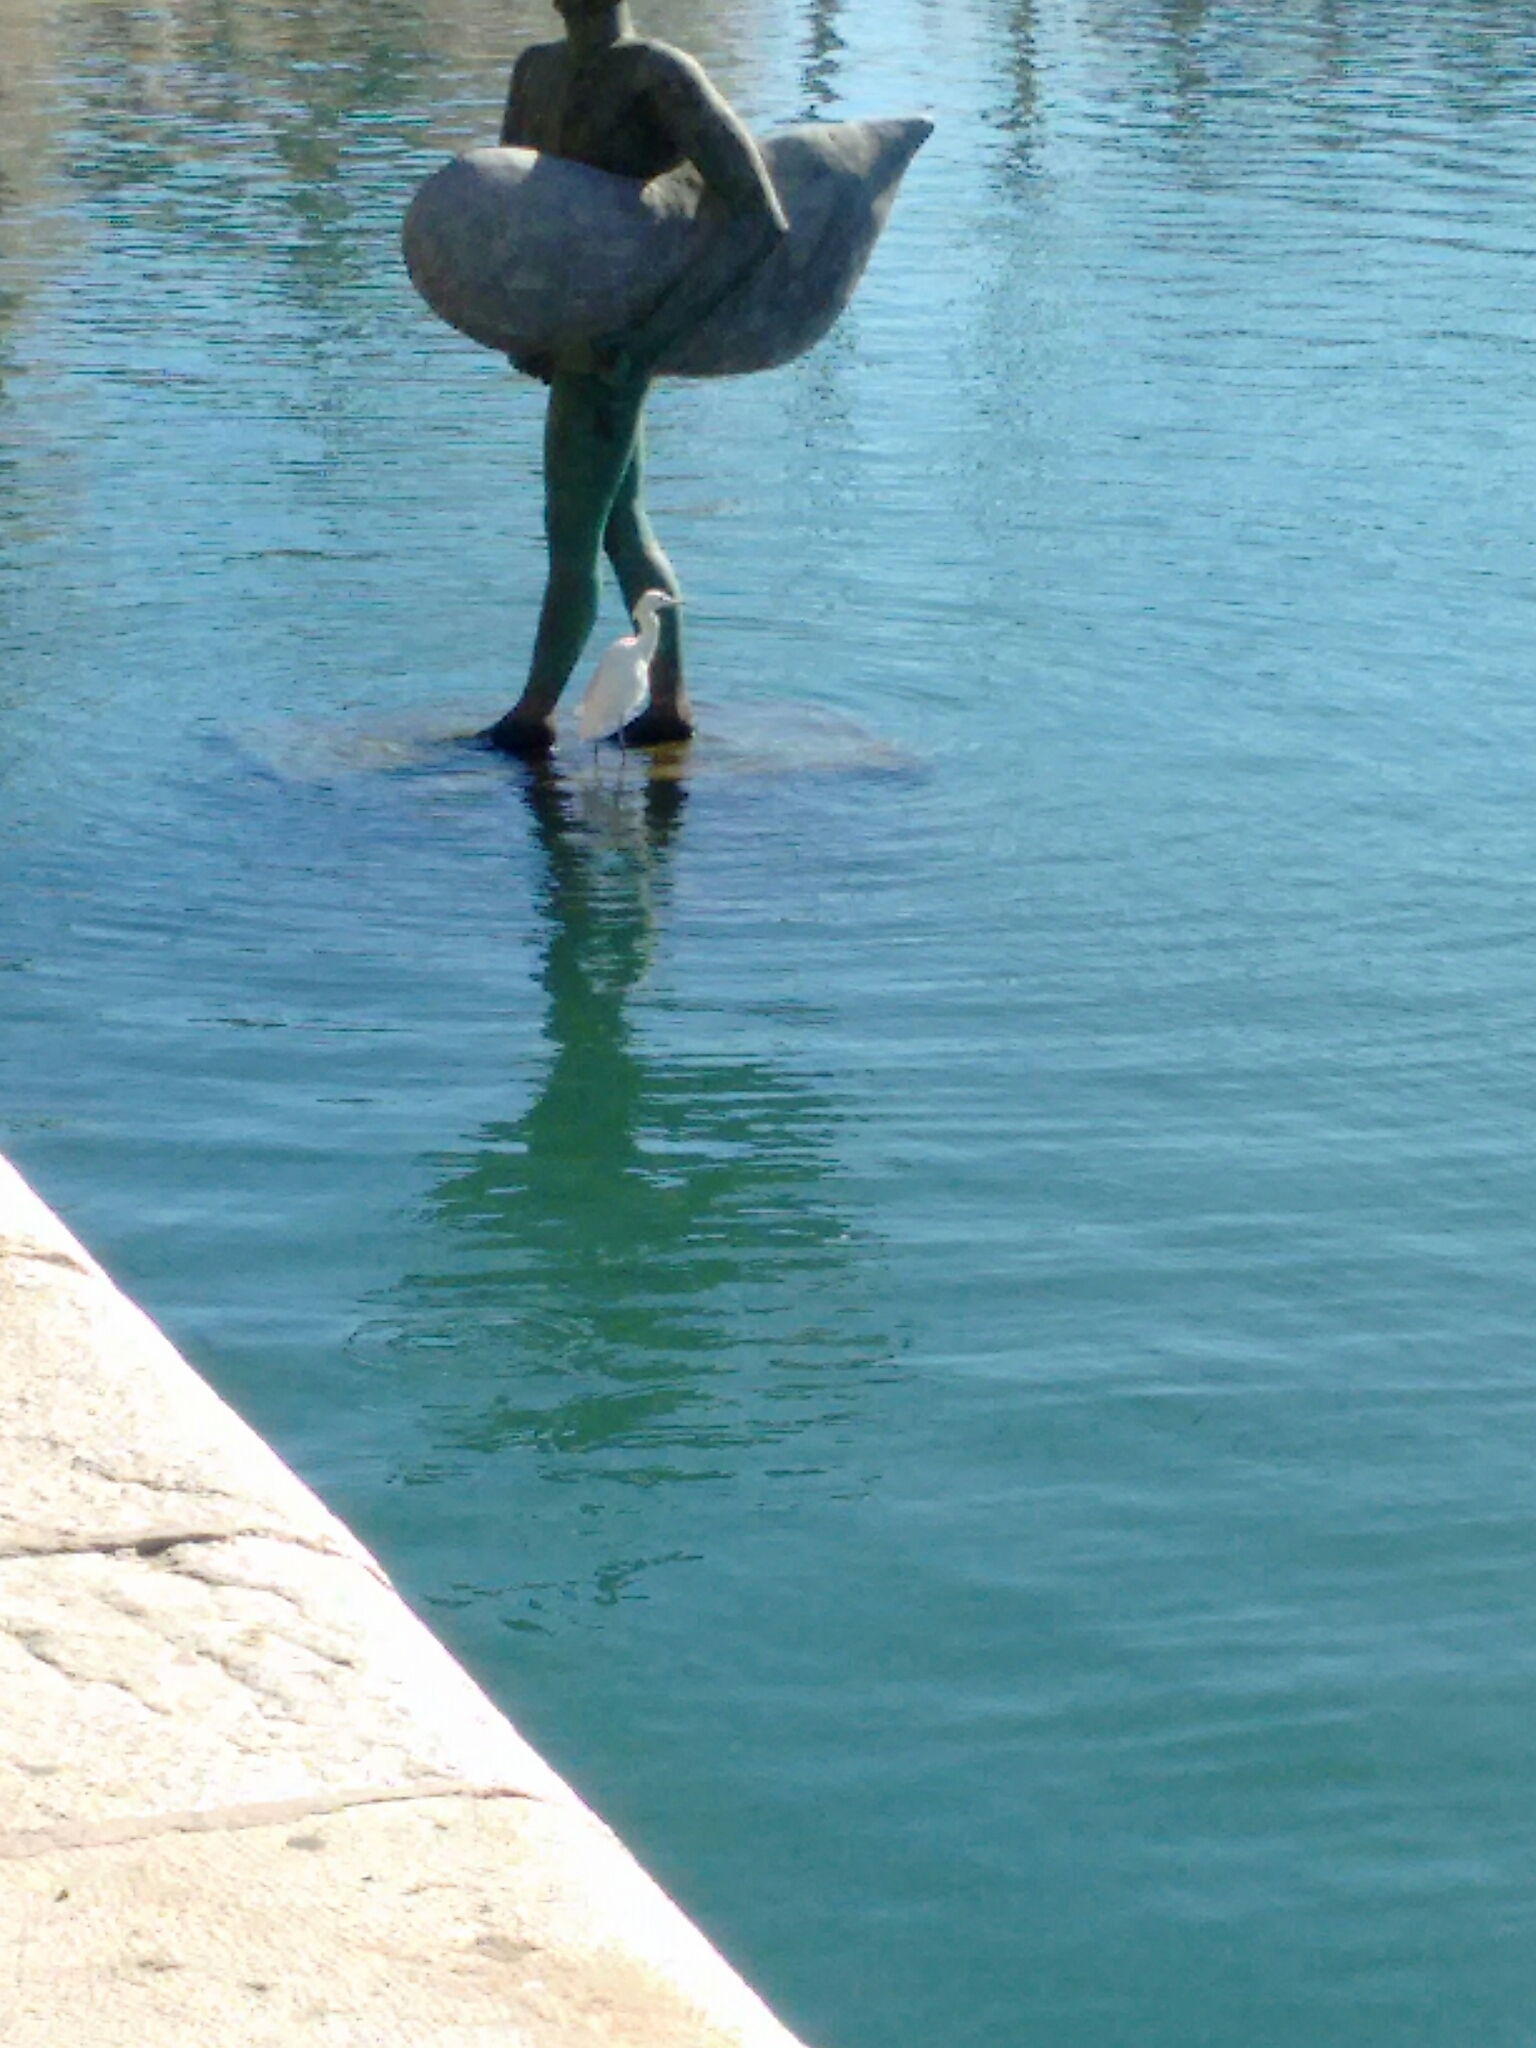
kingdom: Animalia
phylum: Chordata
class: Aves
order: Pelecaniformes
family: Ardeidae
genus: Egretta
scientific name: Egretta garzetta
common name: Little egret
